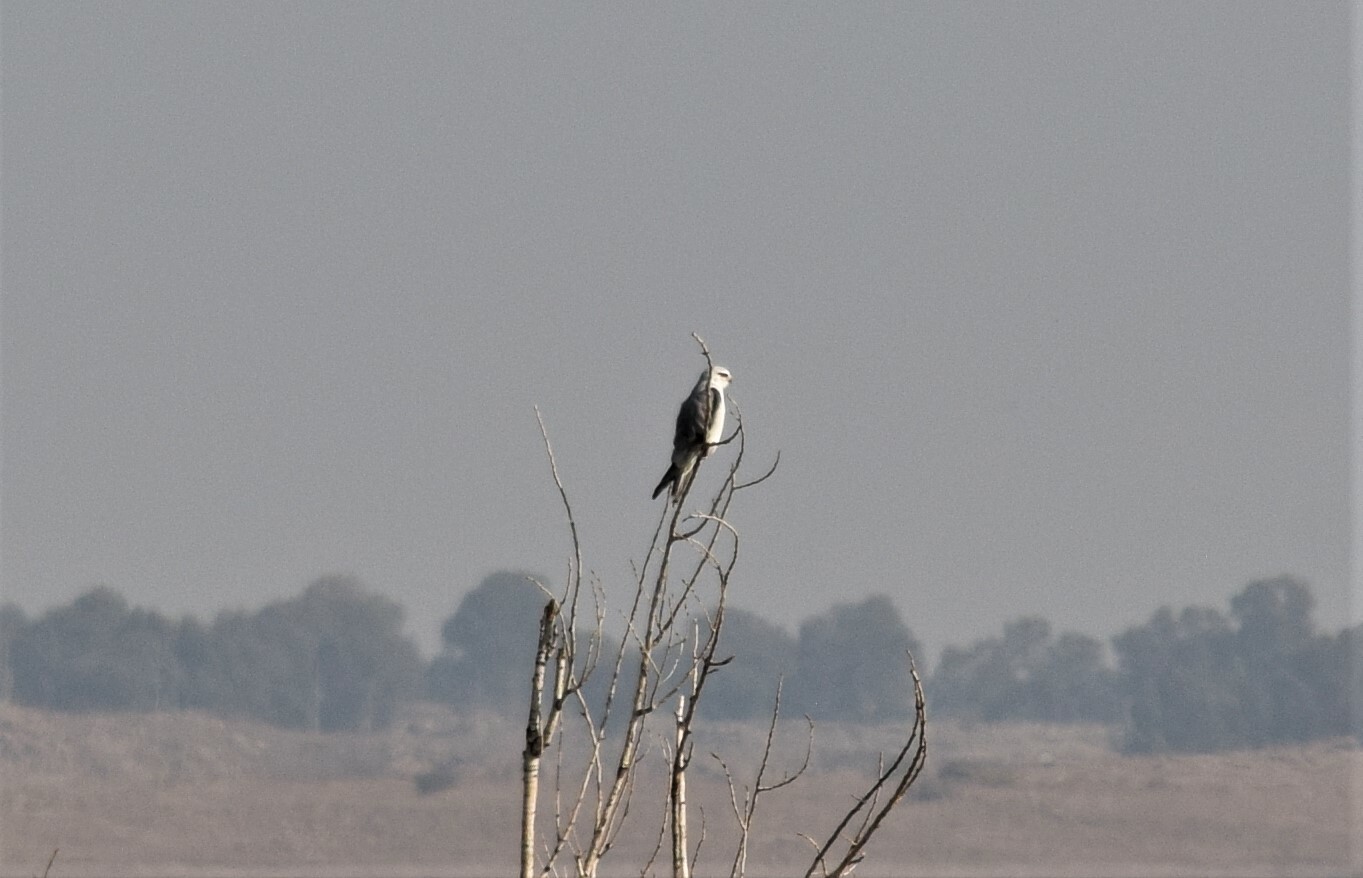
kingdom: Animalia
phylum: Chordata
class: Aves
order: Accipitriformes
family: Accipitridae
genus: Elanus
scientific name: Elanus caeruleus
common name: Black-winged kite
